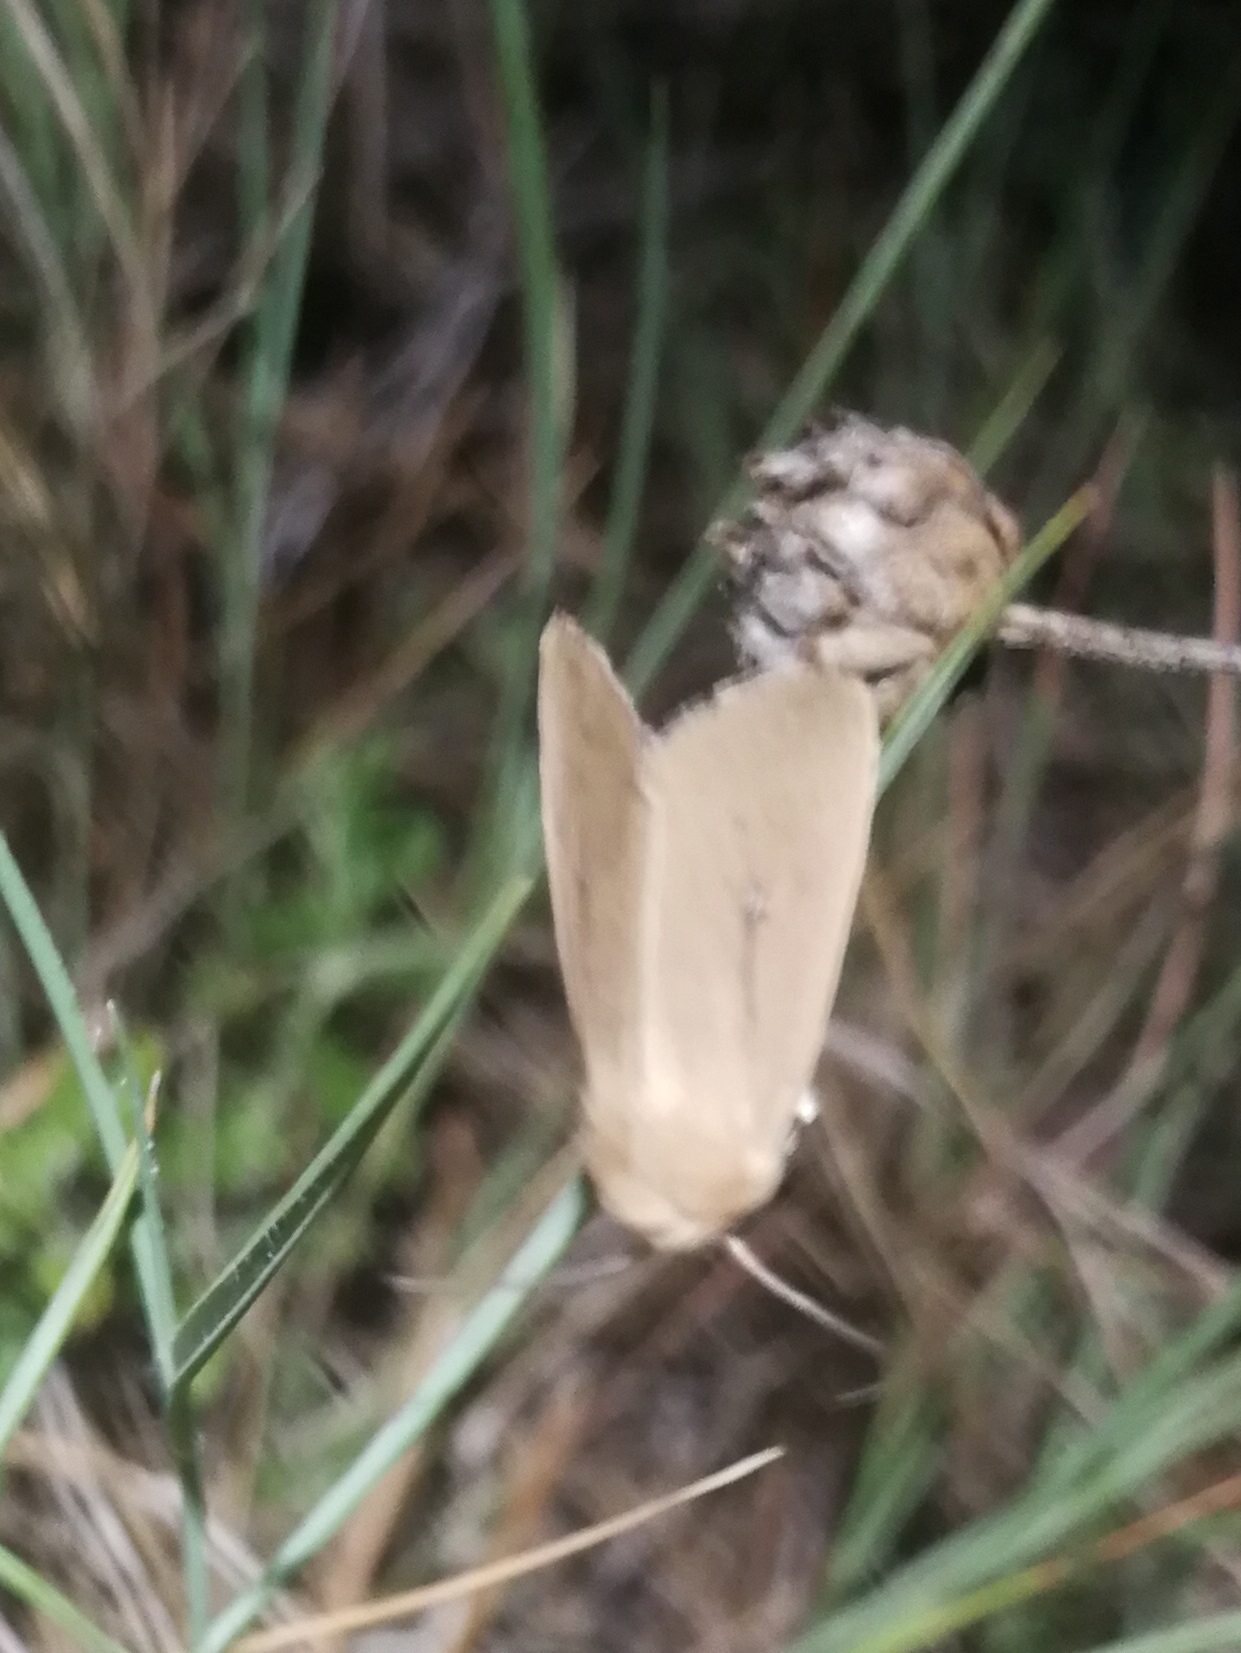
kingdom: Animalia
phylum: Arthropoda
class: Insecta
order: Lepidoptera
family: Noctuidae
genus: Mythimna
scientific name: Mythimna sicula
